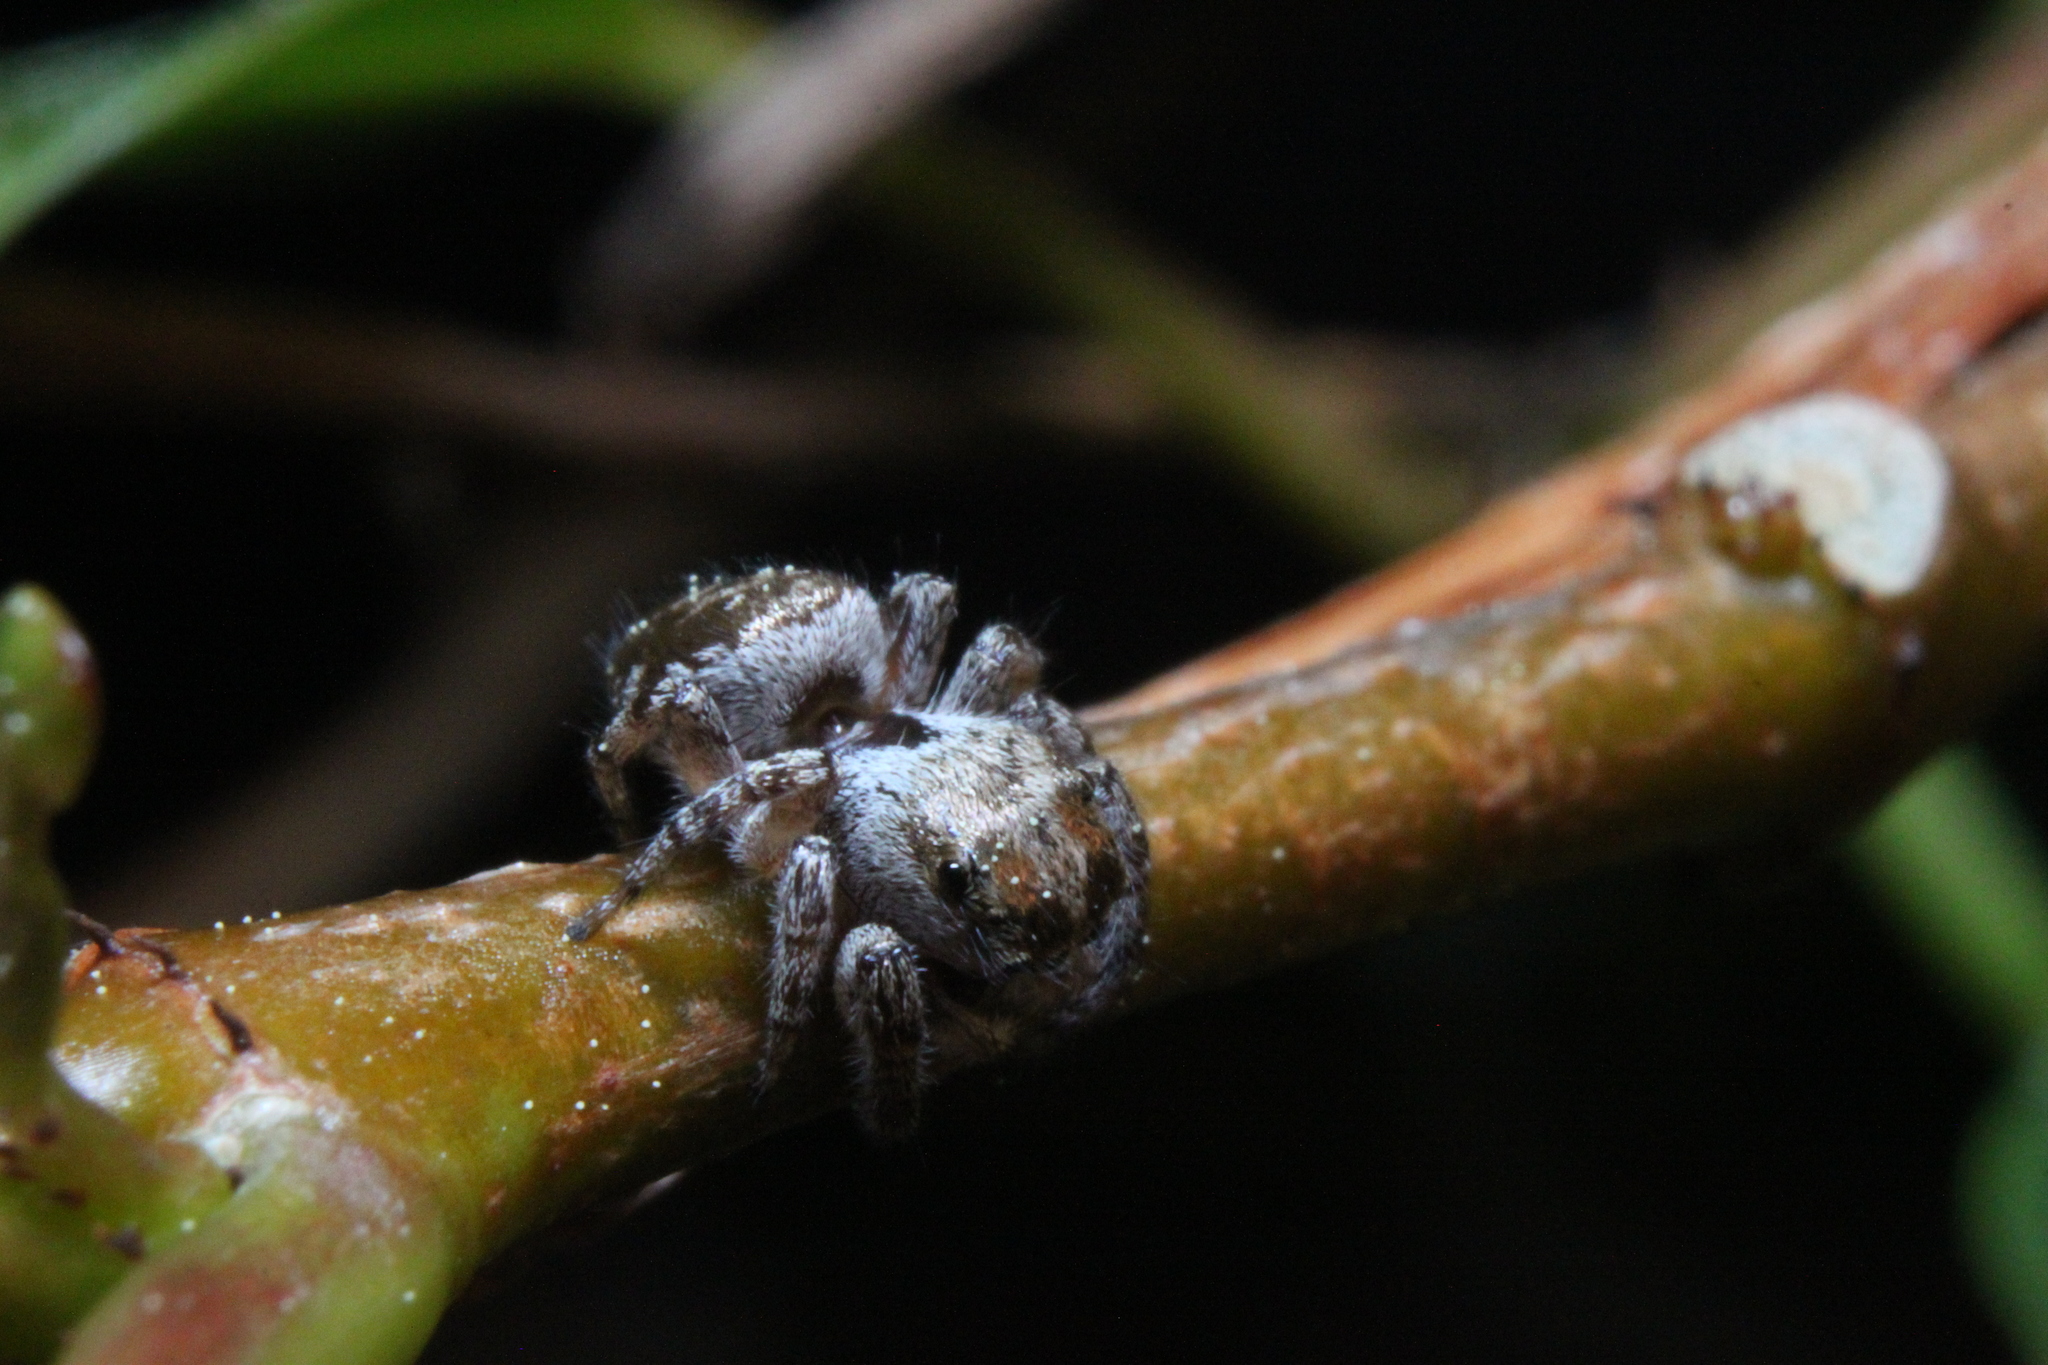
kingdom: Animalia
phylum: Arthropoda
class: Arachnida
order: Araneae
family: Salticidae
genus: Pelegrina
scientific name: Pelegrina exigua
